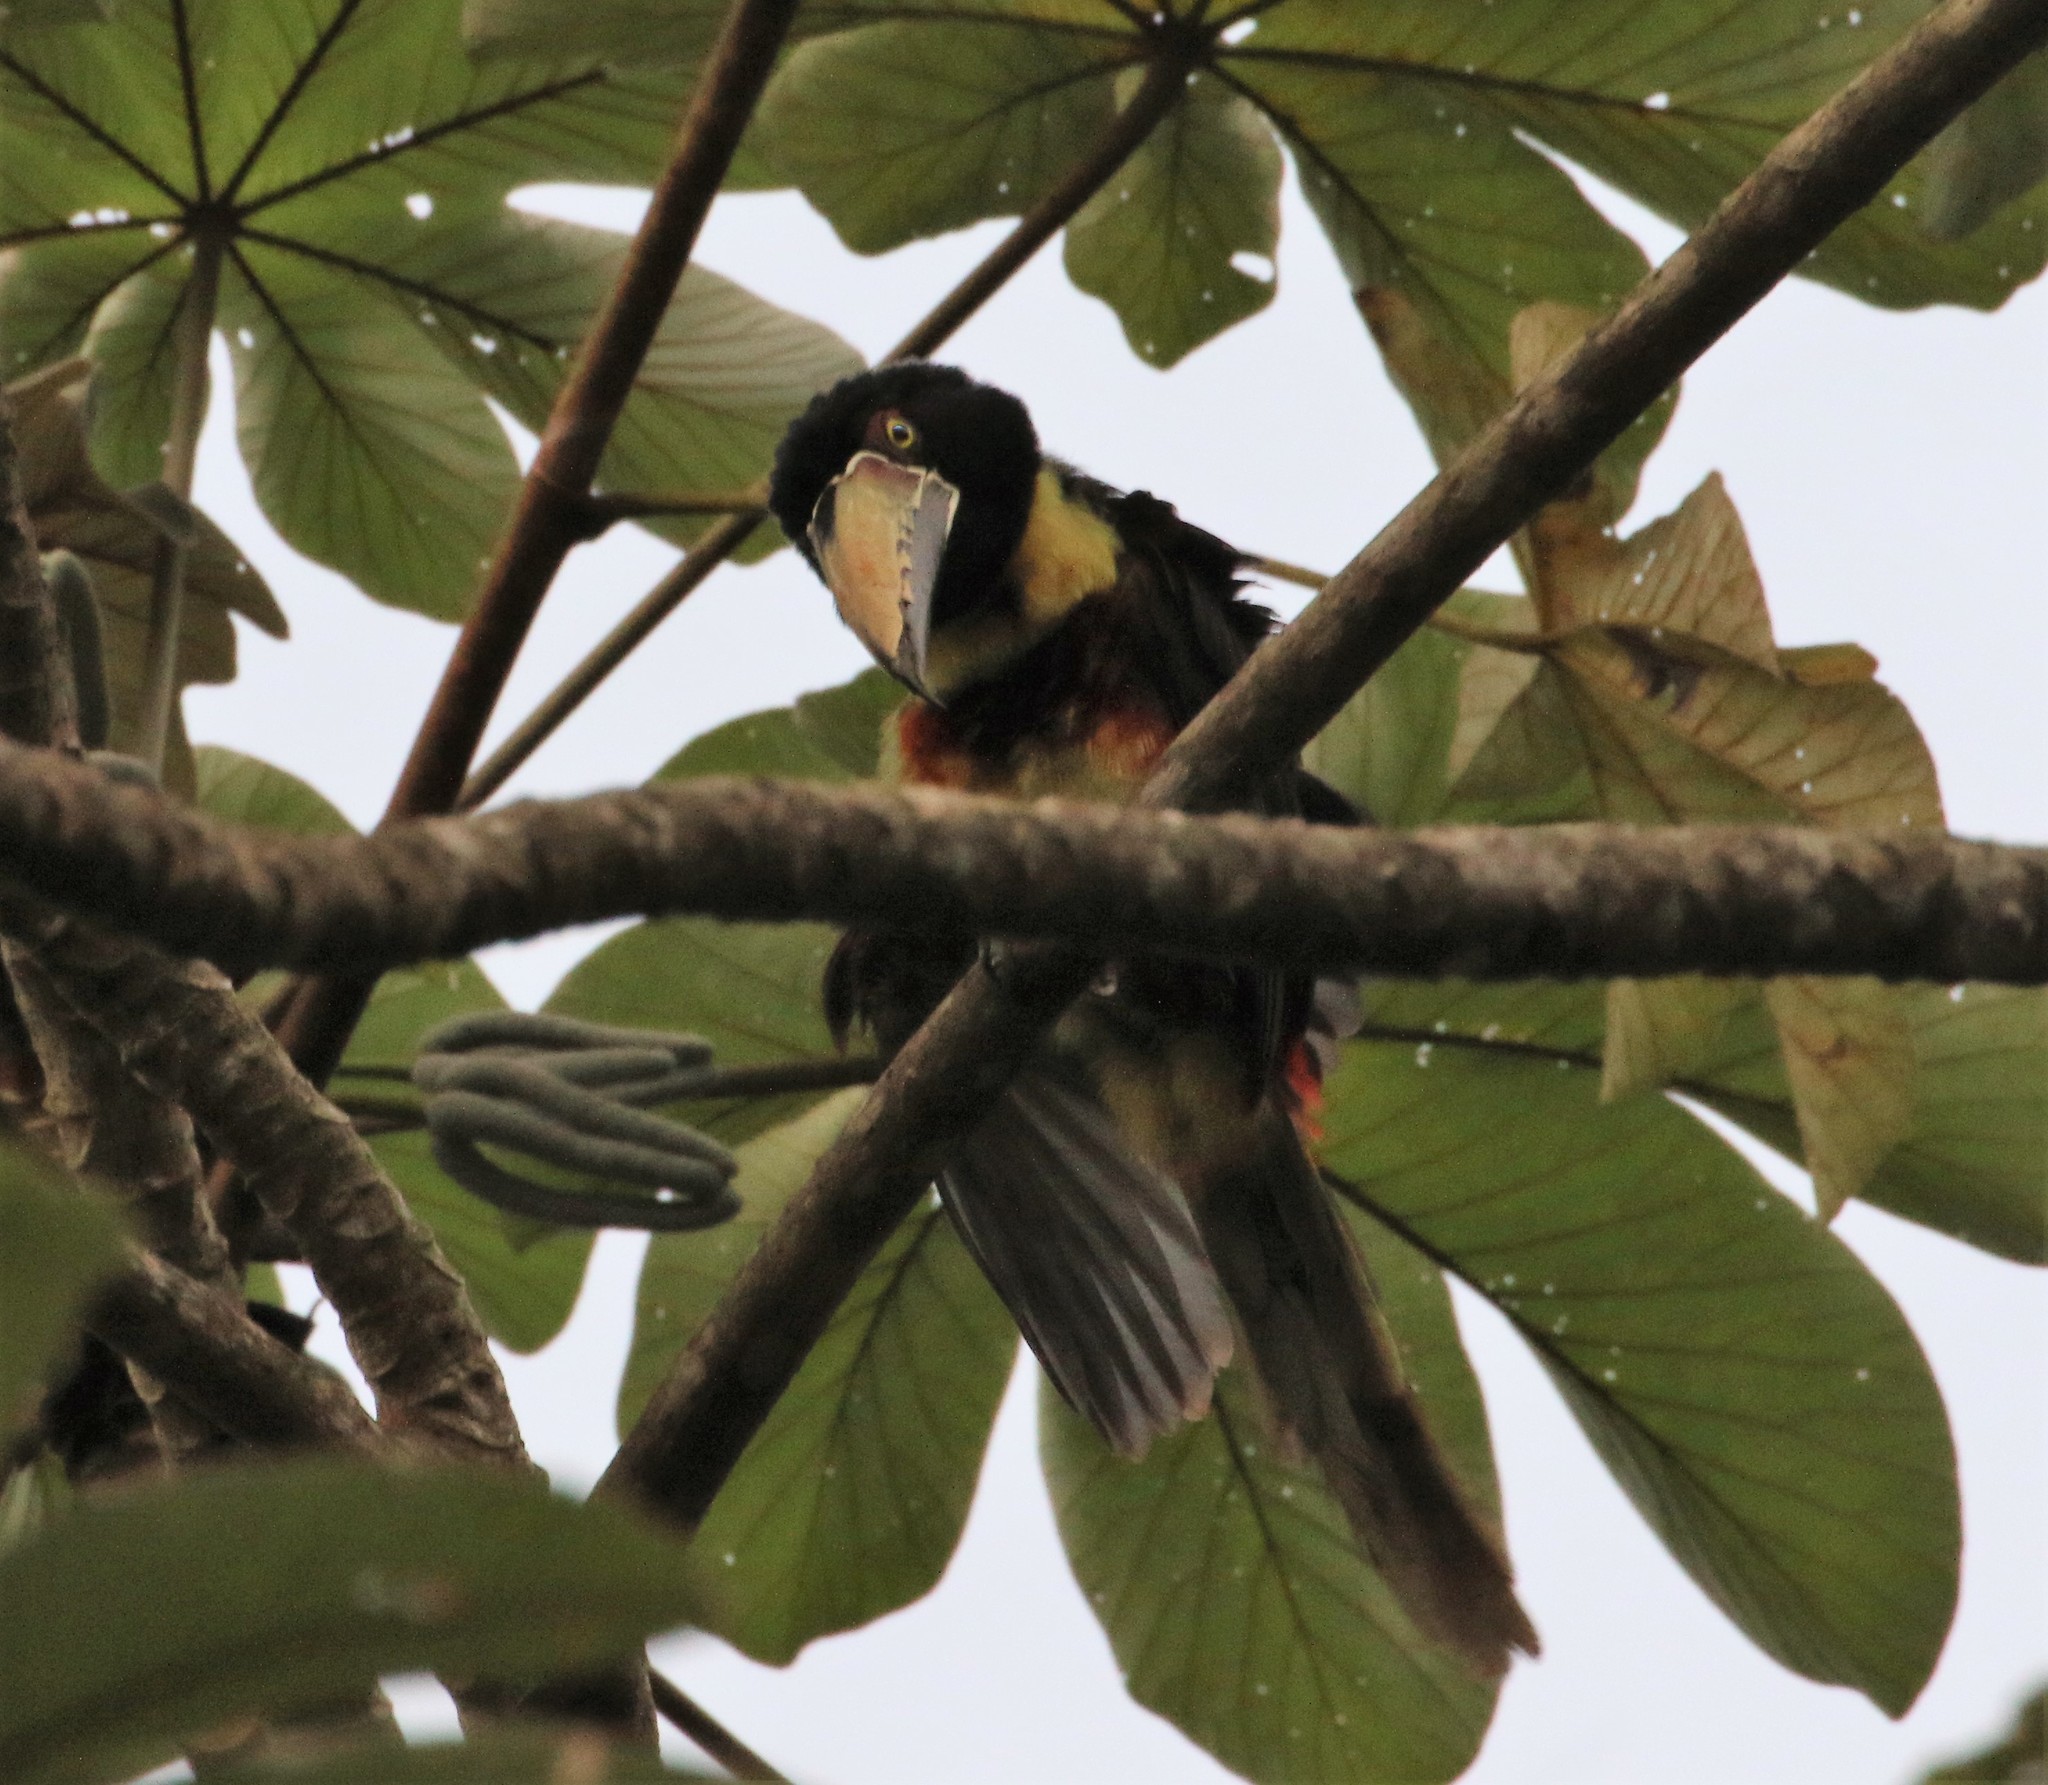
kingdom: Animalia
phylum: Chordata
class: Aves
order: Piciformes
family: Ramphastidae
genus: Pteroglossus
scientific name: Pteroglossus torquatus
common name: Collared aracari
